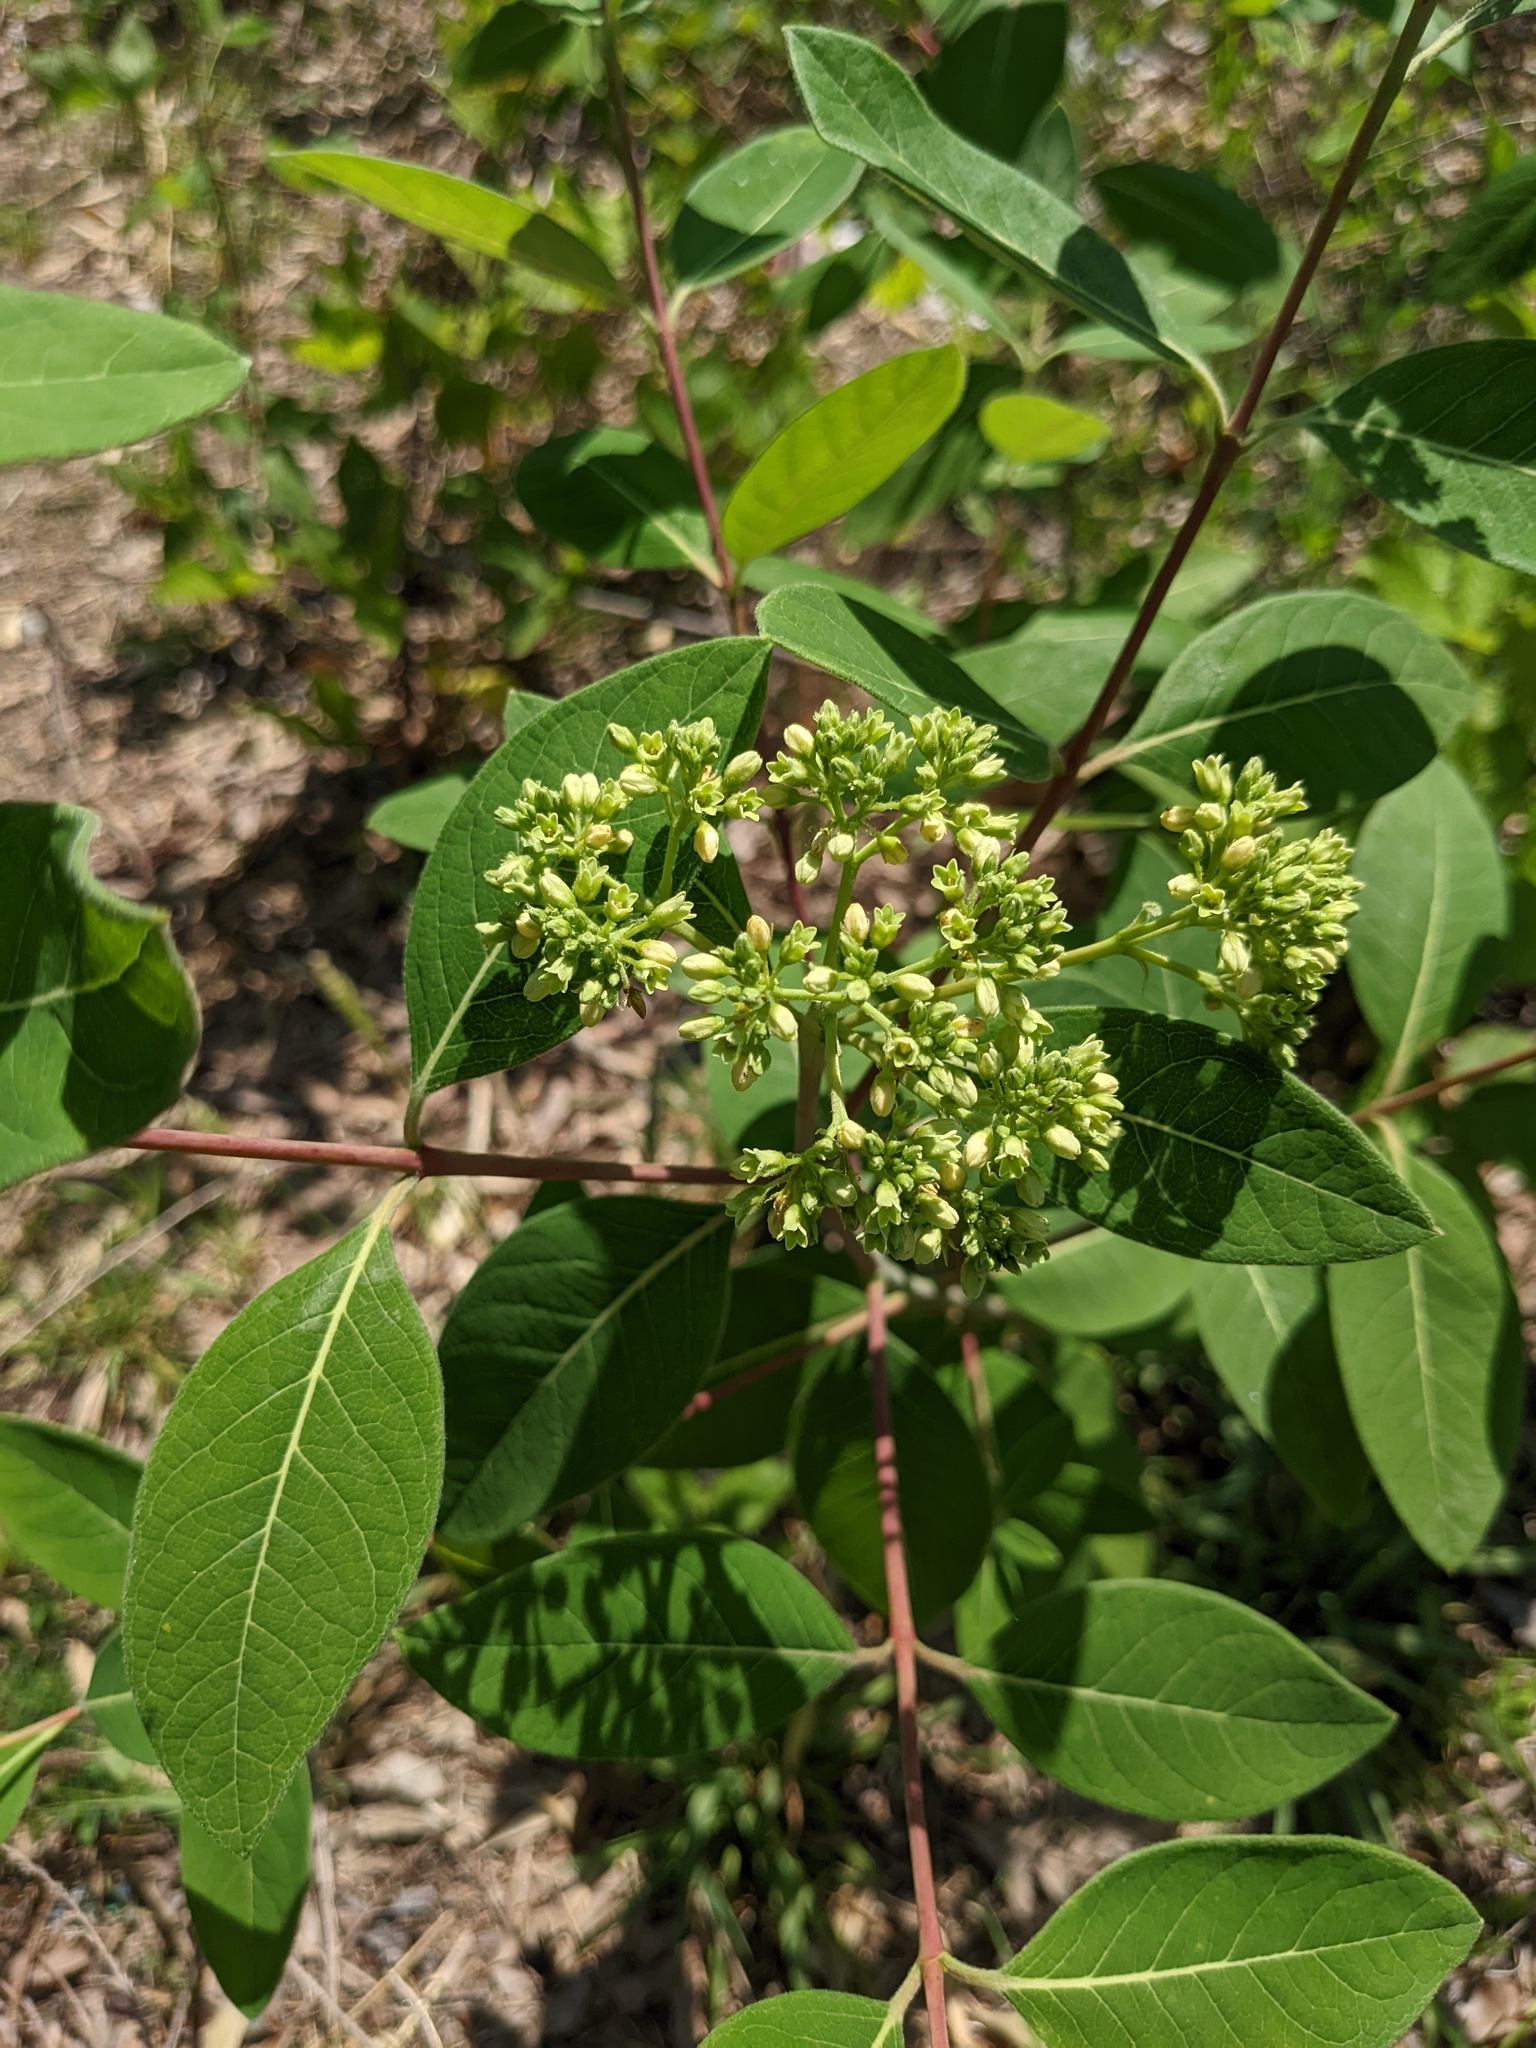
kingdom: Plantae
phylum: Tracheophyta
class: Magnoliopsida
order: Gentianales
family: Apocynaceae
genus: Apocynum
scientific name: Apocynum cannabinum
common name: Hemp dogbane
